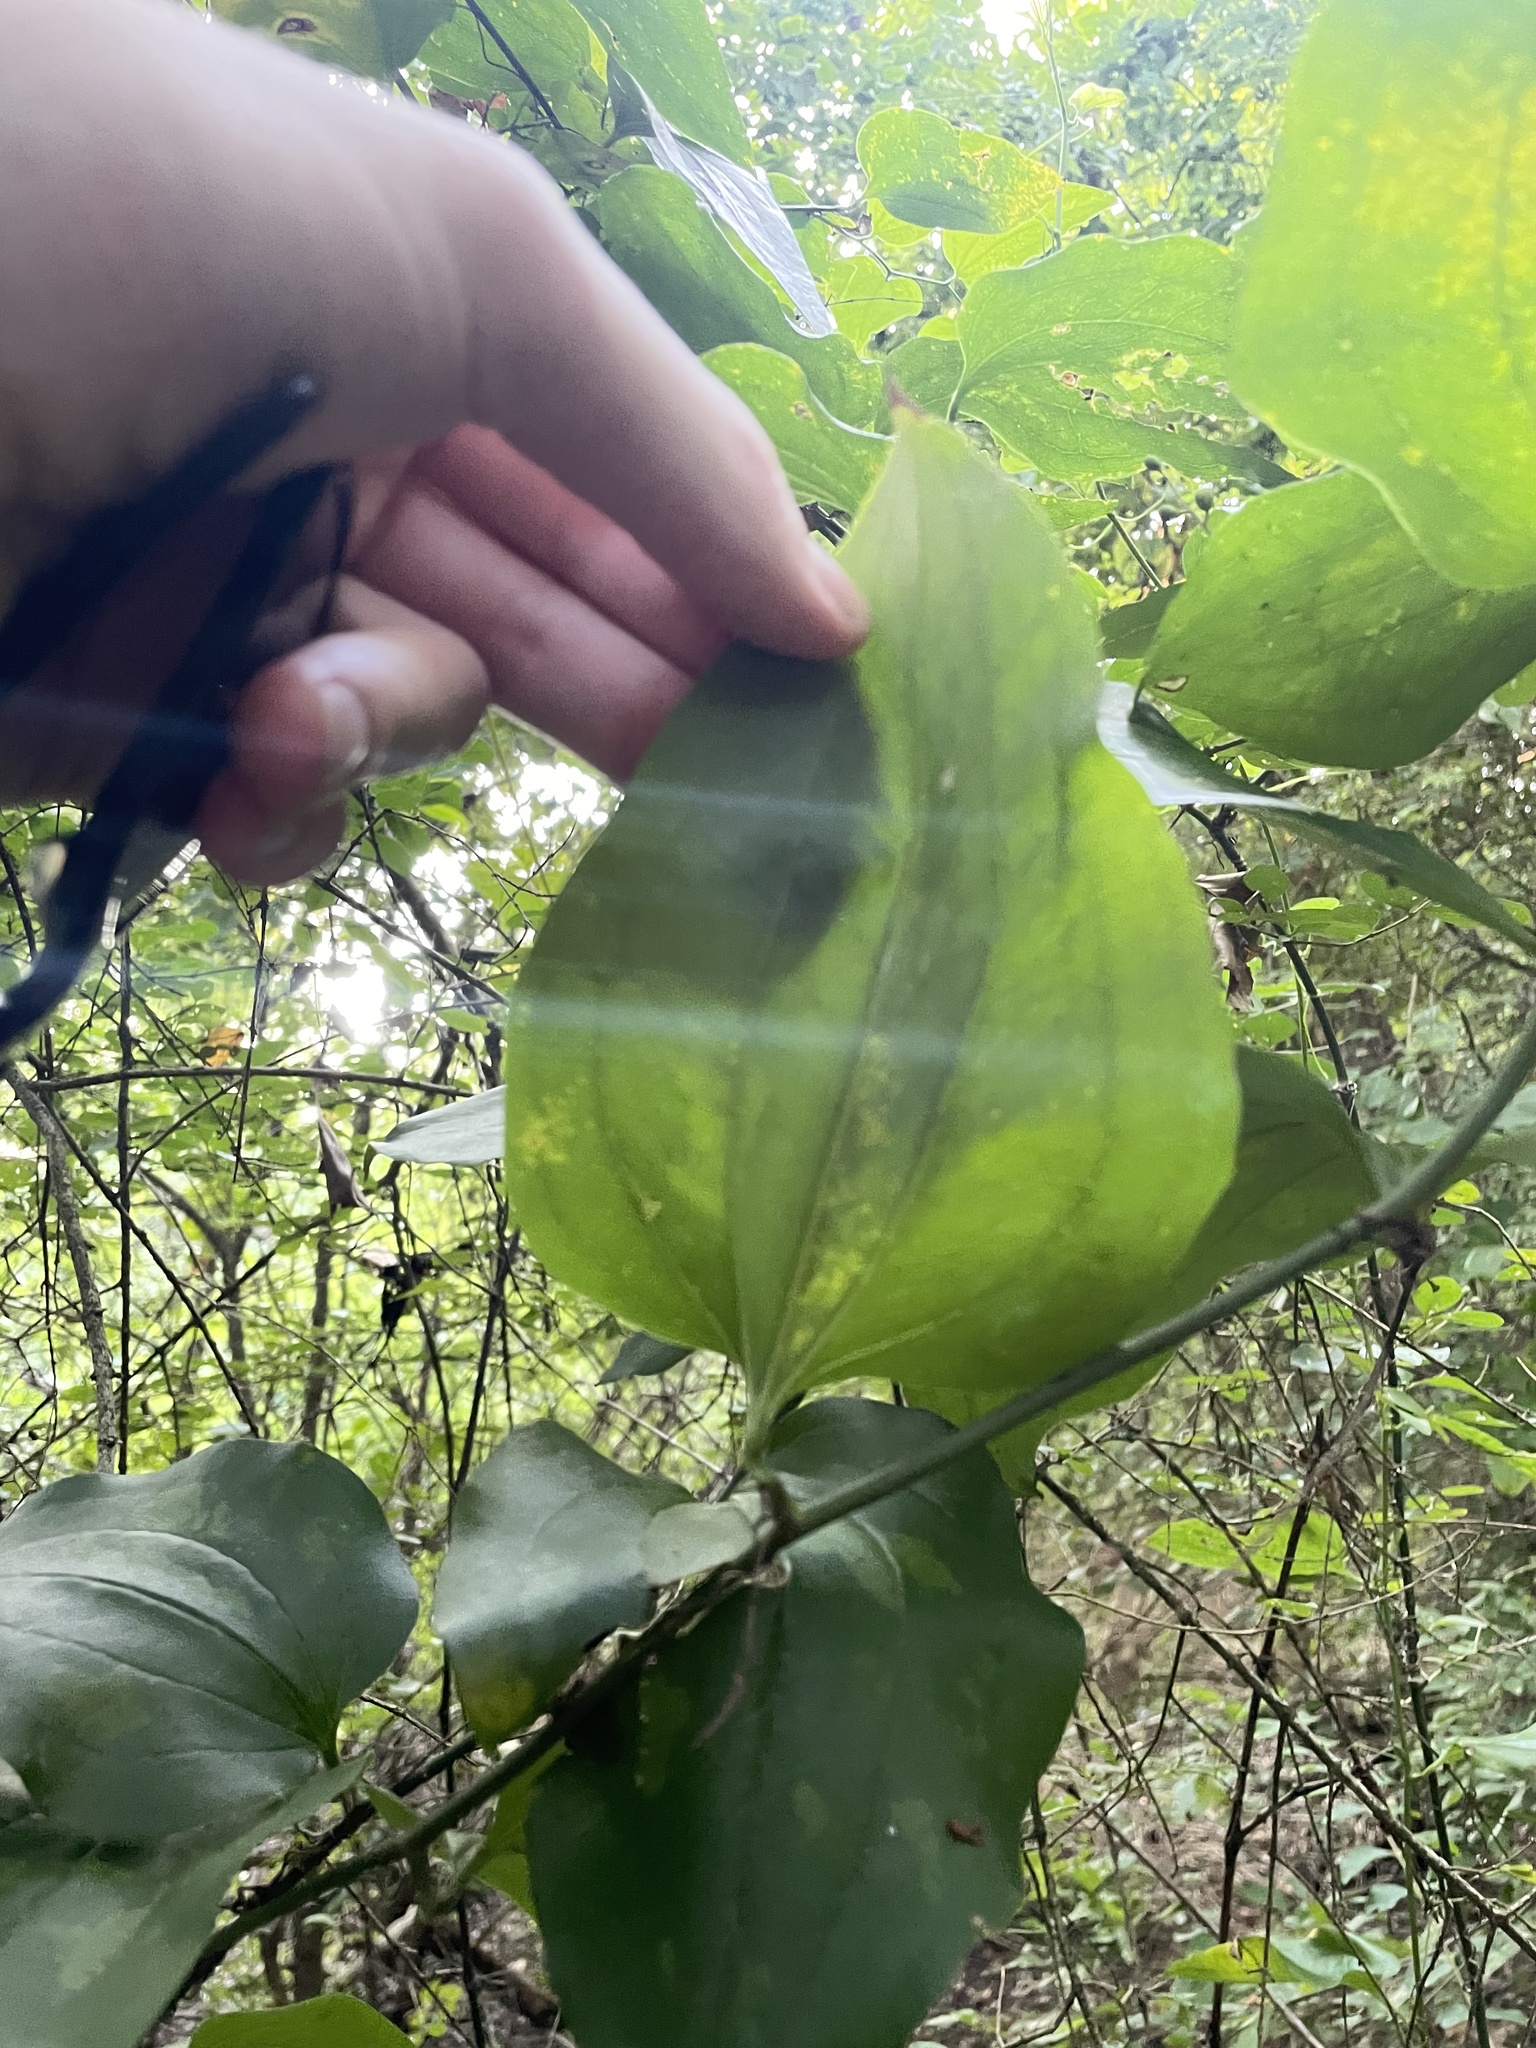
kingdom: Plantae
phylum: Tracheophyta
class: Liliopsida
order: Liliales
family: Smilacaceae
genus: Smilax
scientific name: Smilax rotundifolia
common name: Bullbriar
